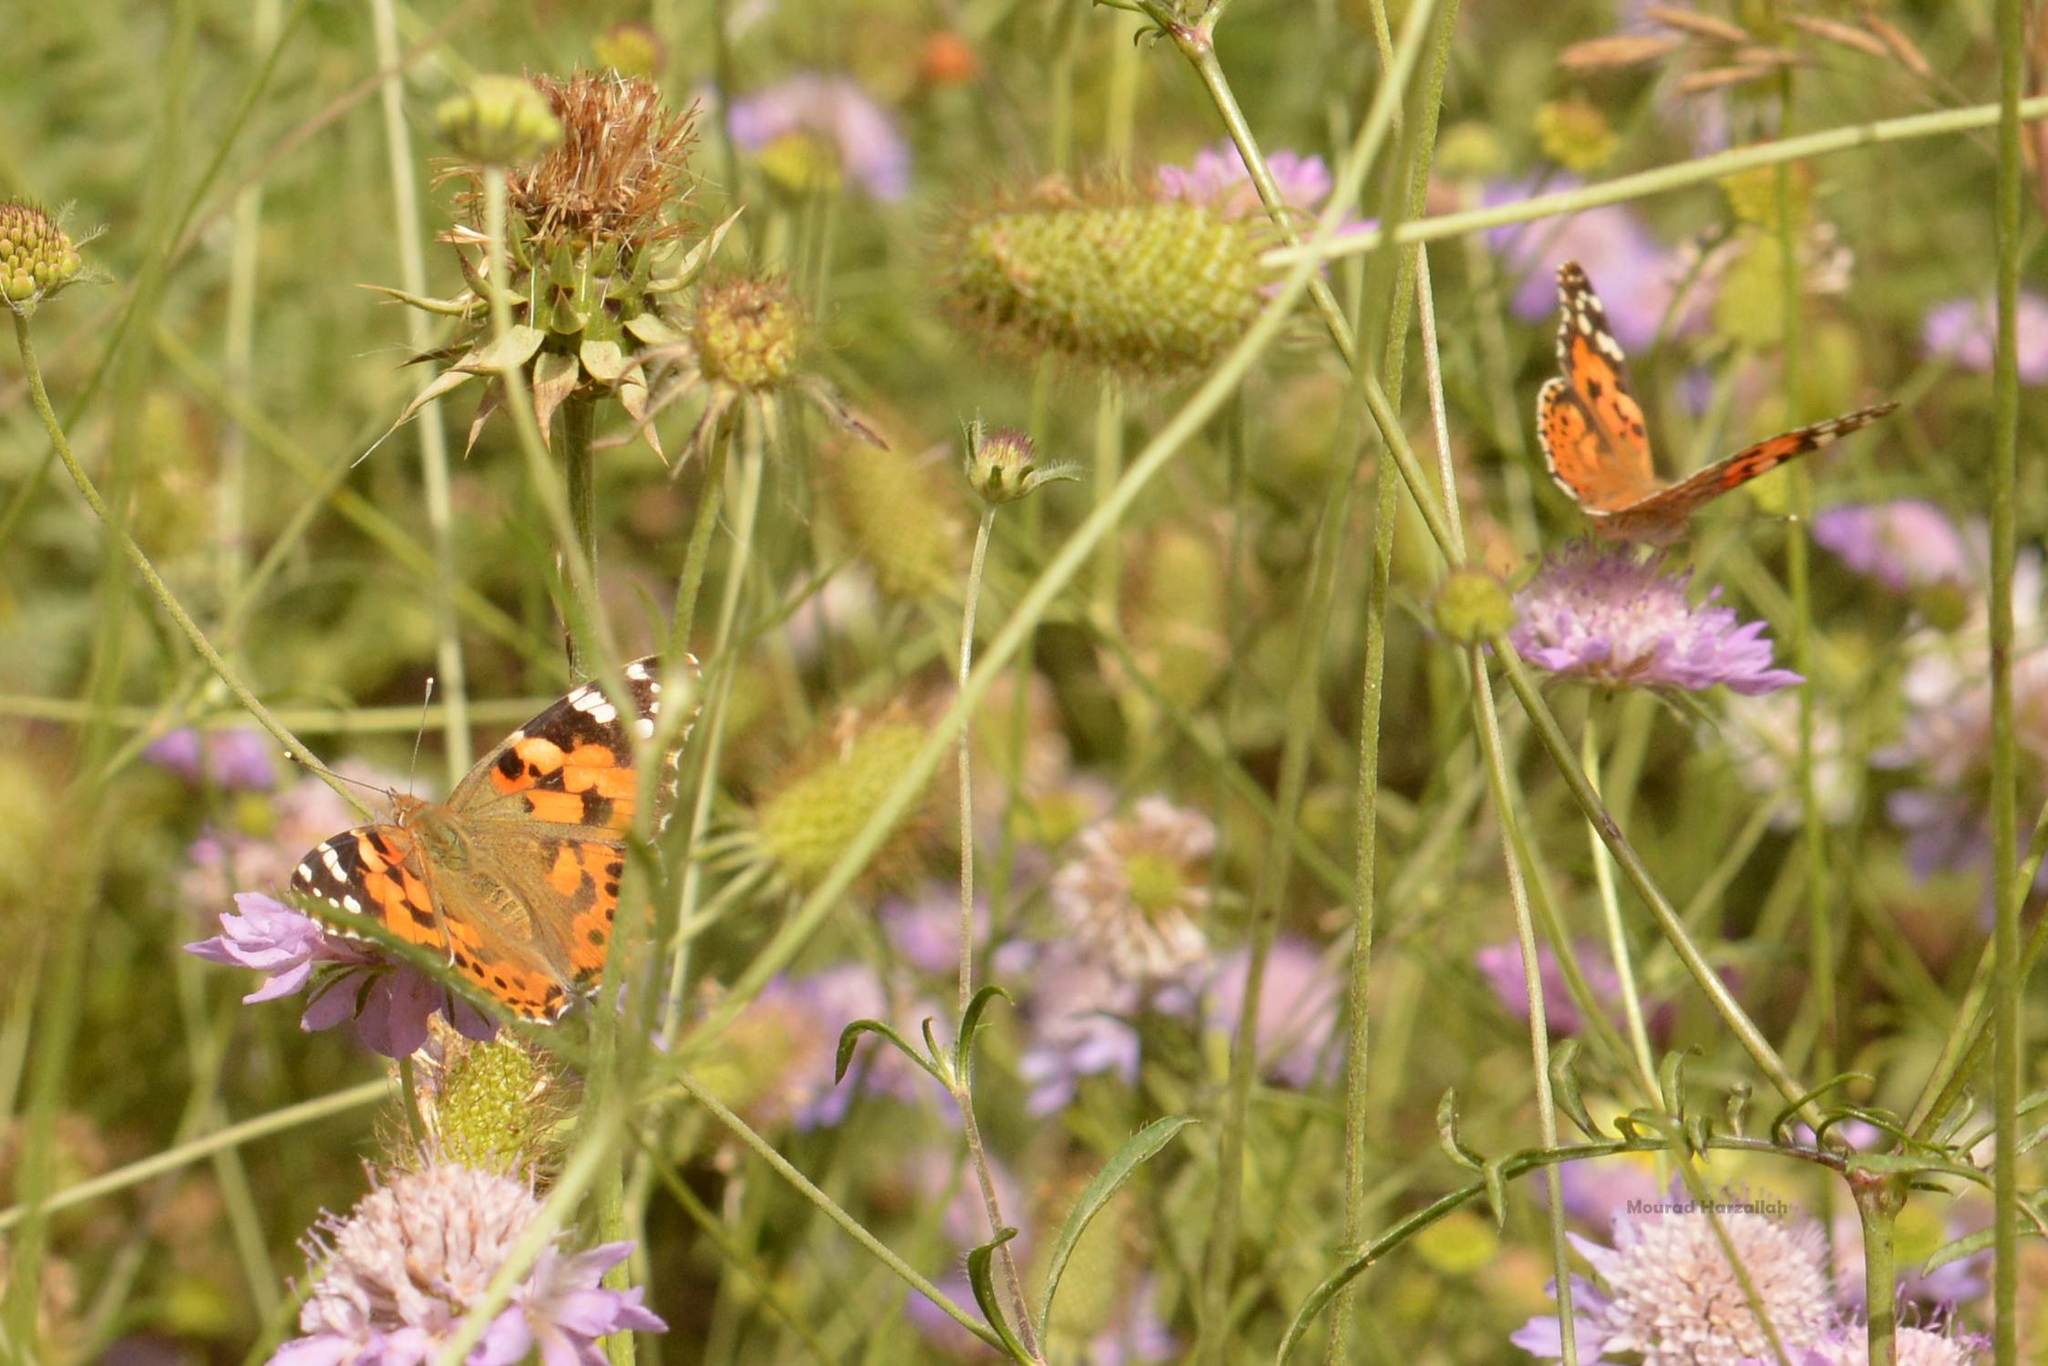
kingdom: Animalia
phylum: Arthropoda
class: Insecta
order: Lepidoptera
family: Nymphalidae
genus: Vanessa
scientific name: Vanessa cardui
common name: Painted lady
